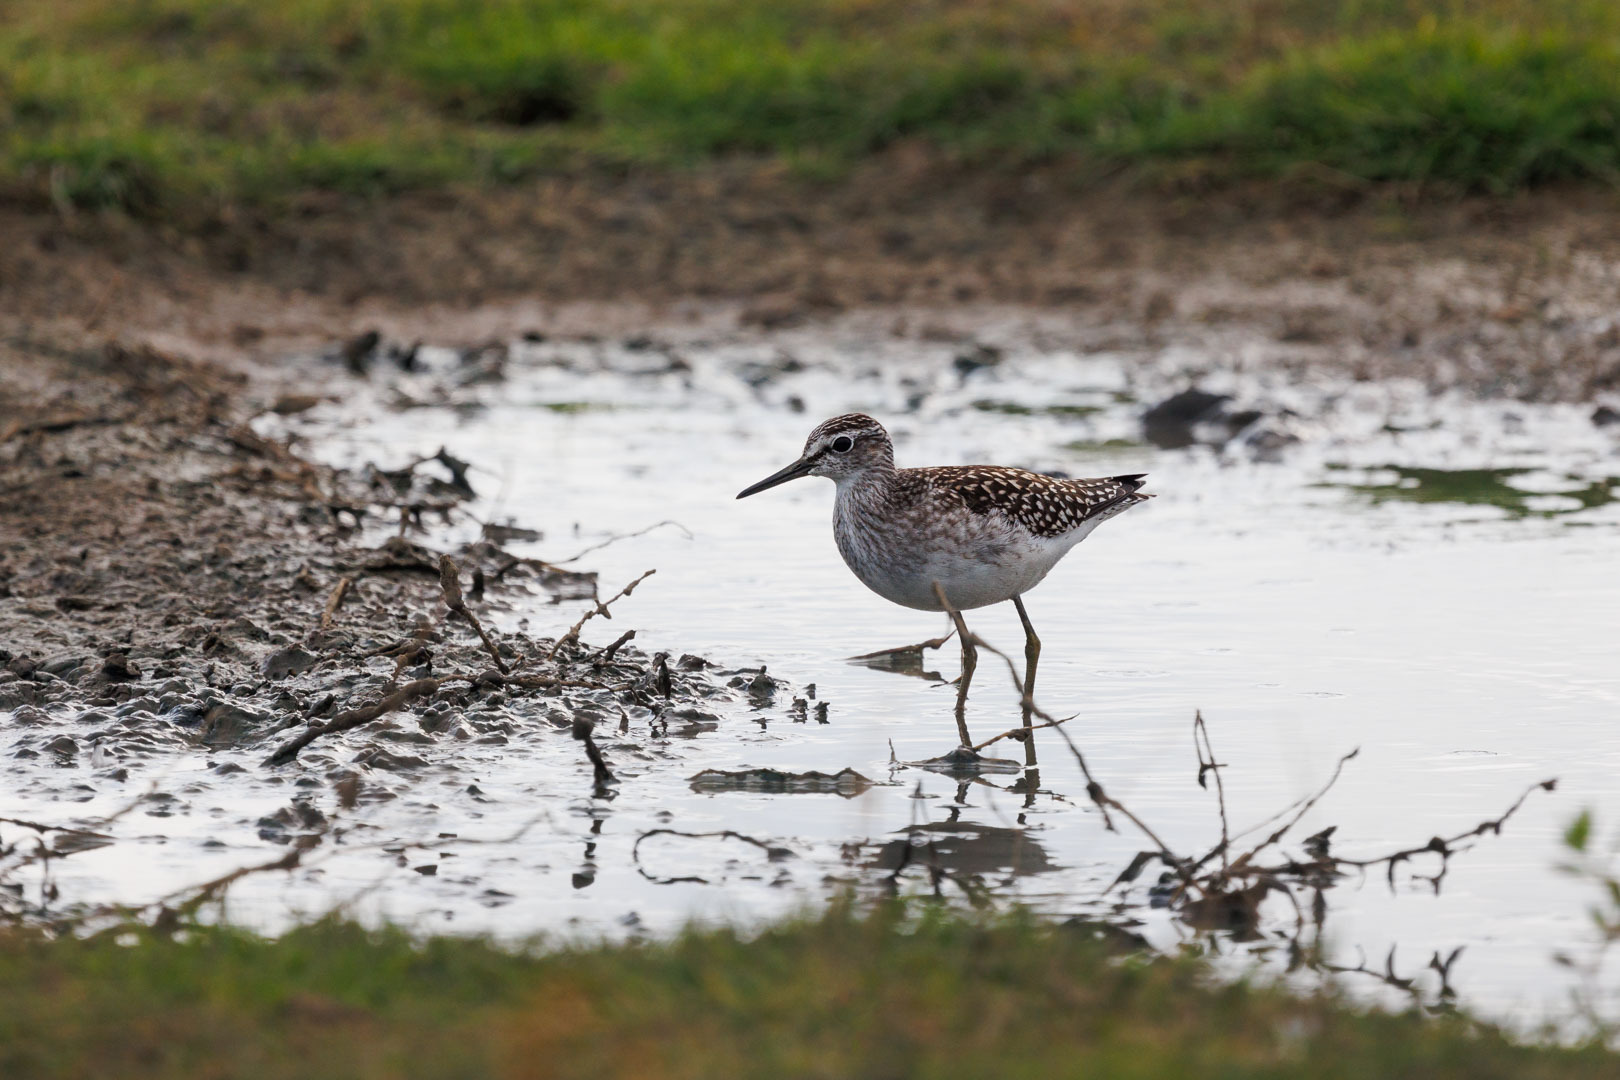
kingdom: Animalia
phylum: Chordata
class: Aves
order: Charadriiformes
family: Scolopacidae
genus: Tringa
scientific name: Tringa glareola
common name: Wood sandpiper
